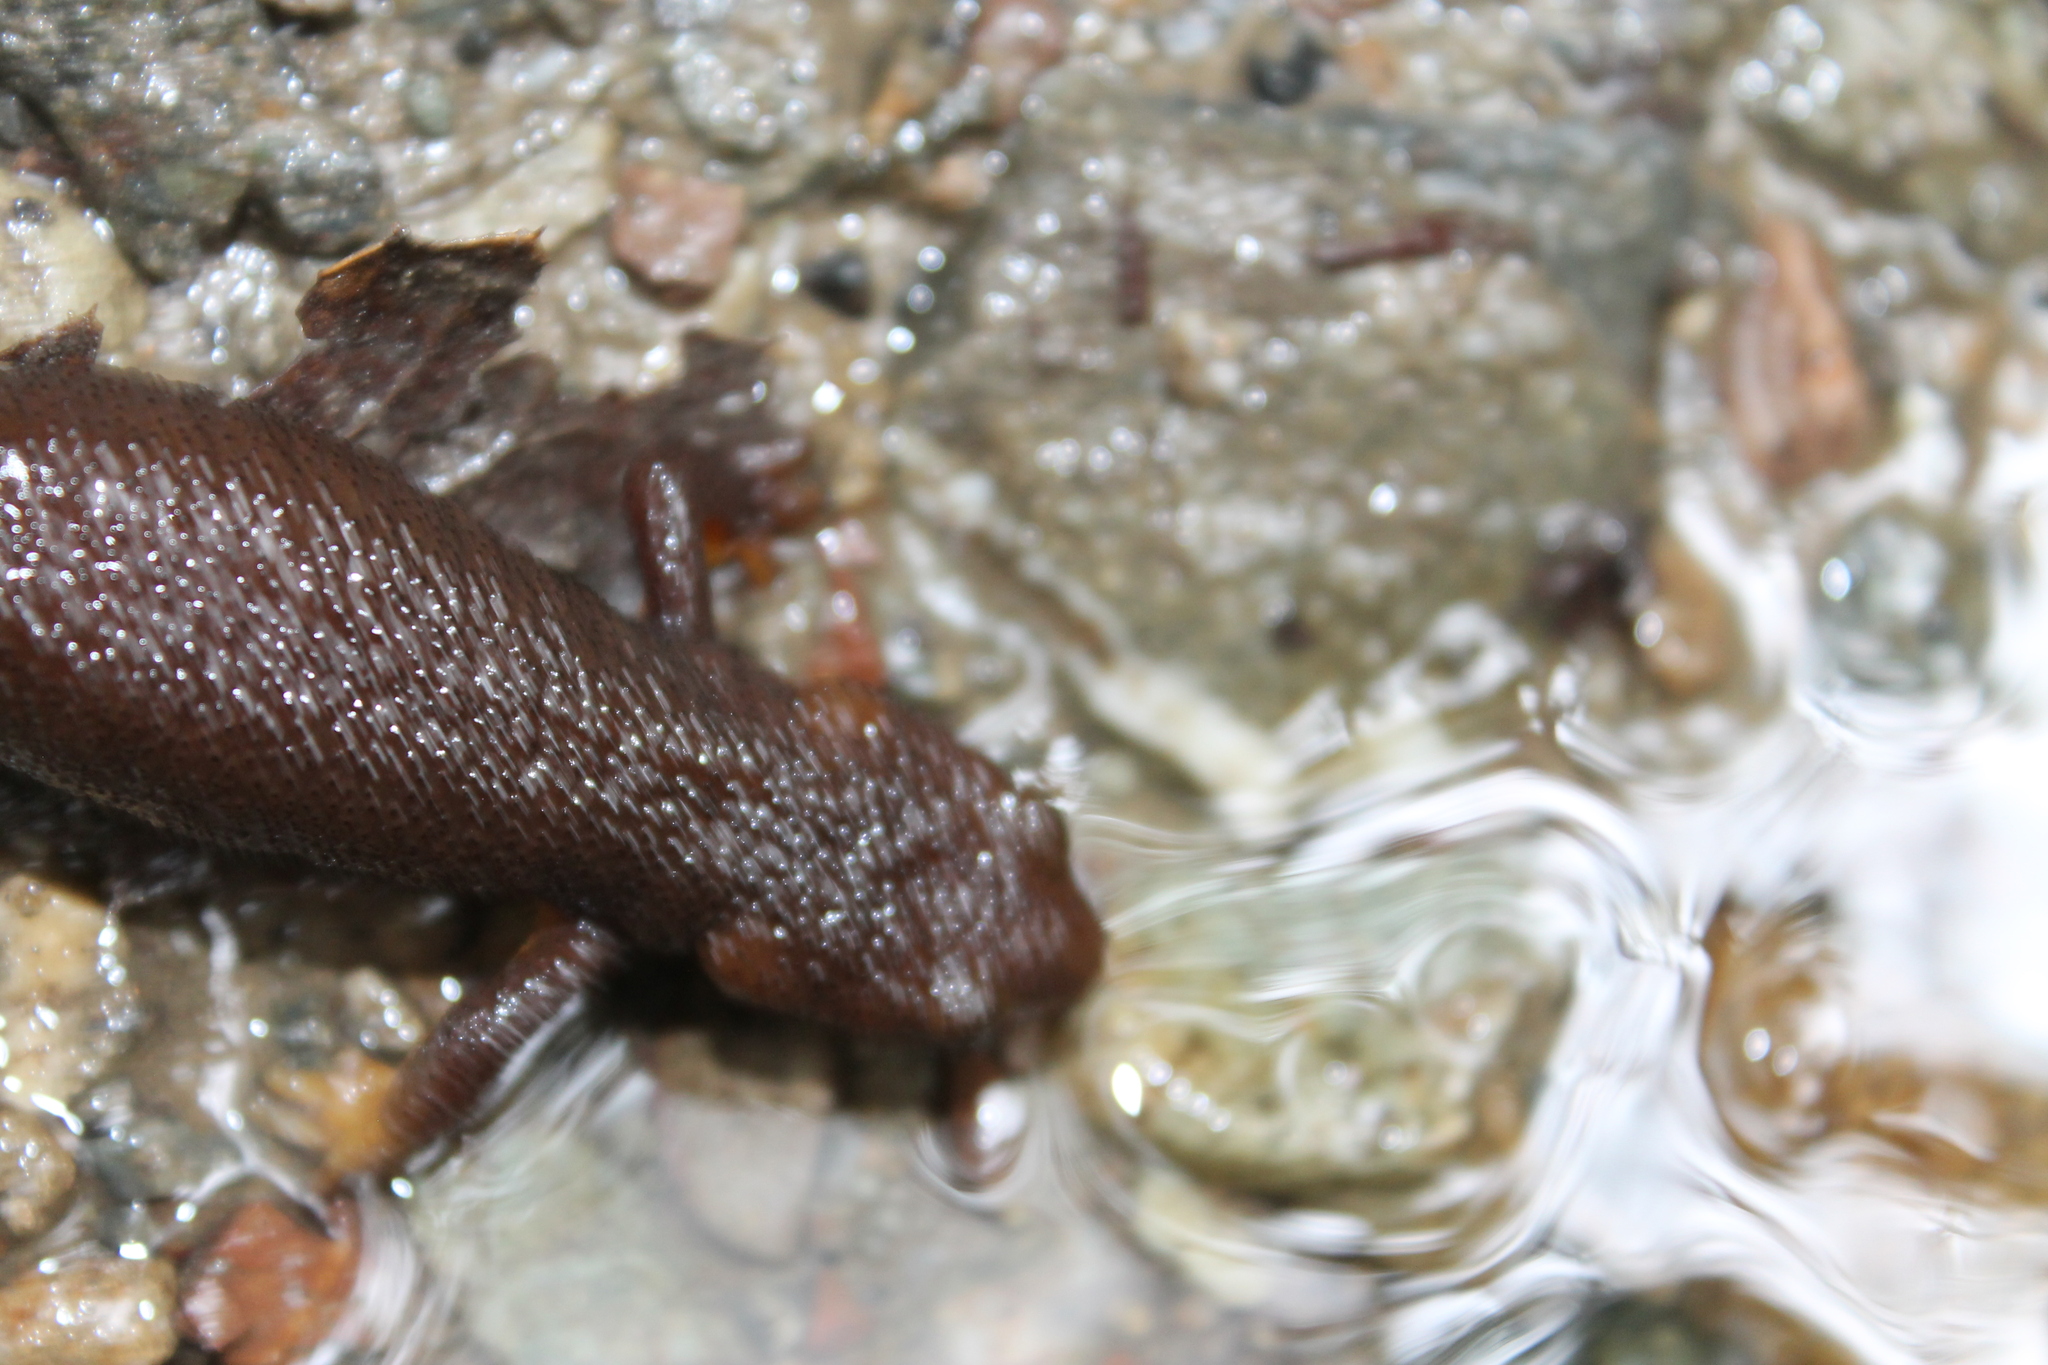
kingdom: Animalia
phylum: Chordata
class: Amphibia
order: Caudata
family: Salamandridae
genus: Taricha
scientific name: Taricha torosa
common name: California newt
